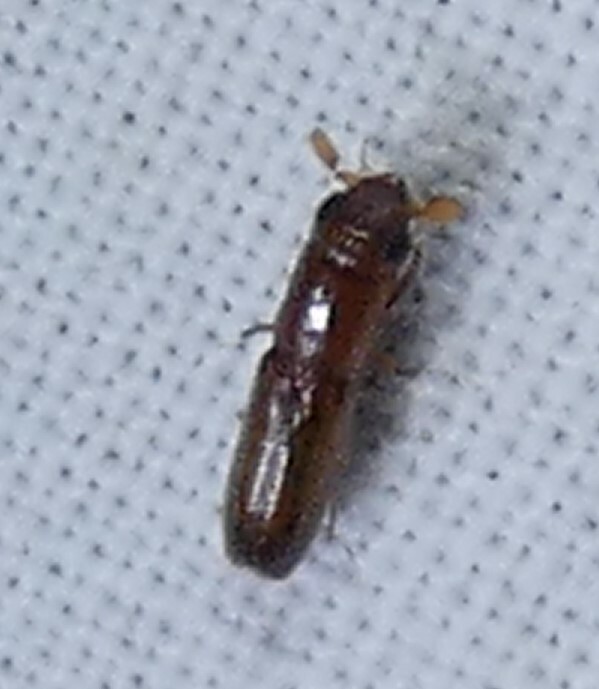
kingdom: Animalia
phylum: Arthropoda
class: Insecta
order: Coleoptera
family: Curculionidae
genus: Euplatypus
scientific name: Euplatypus compositus
